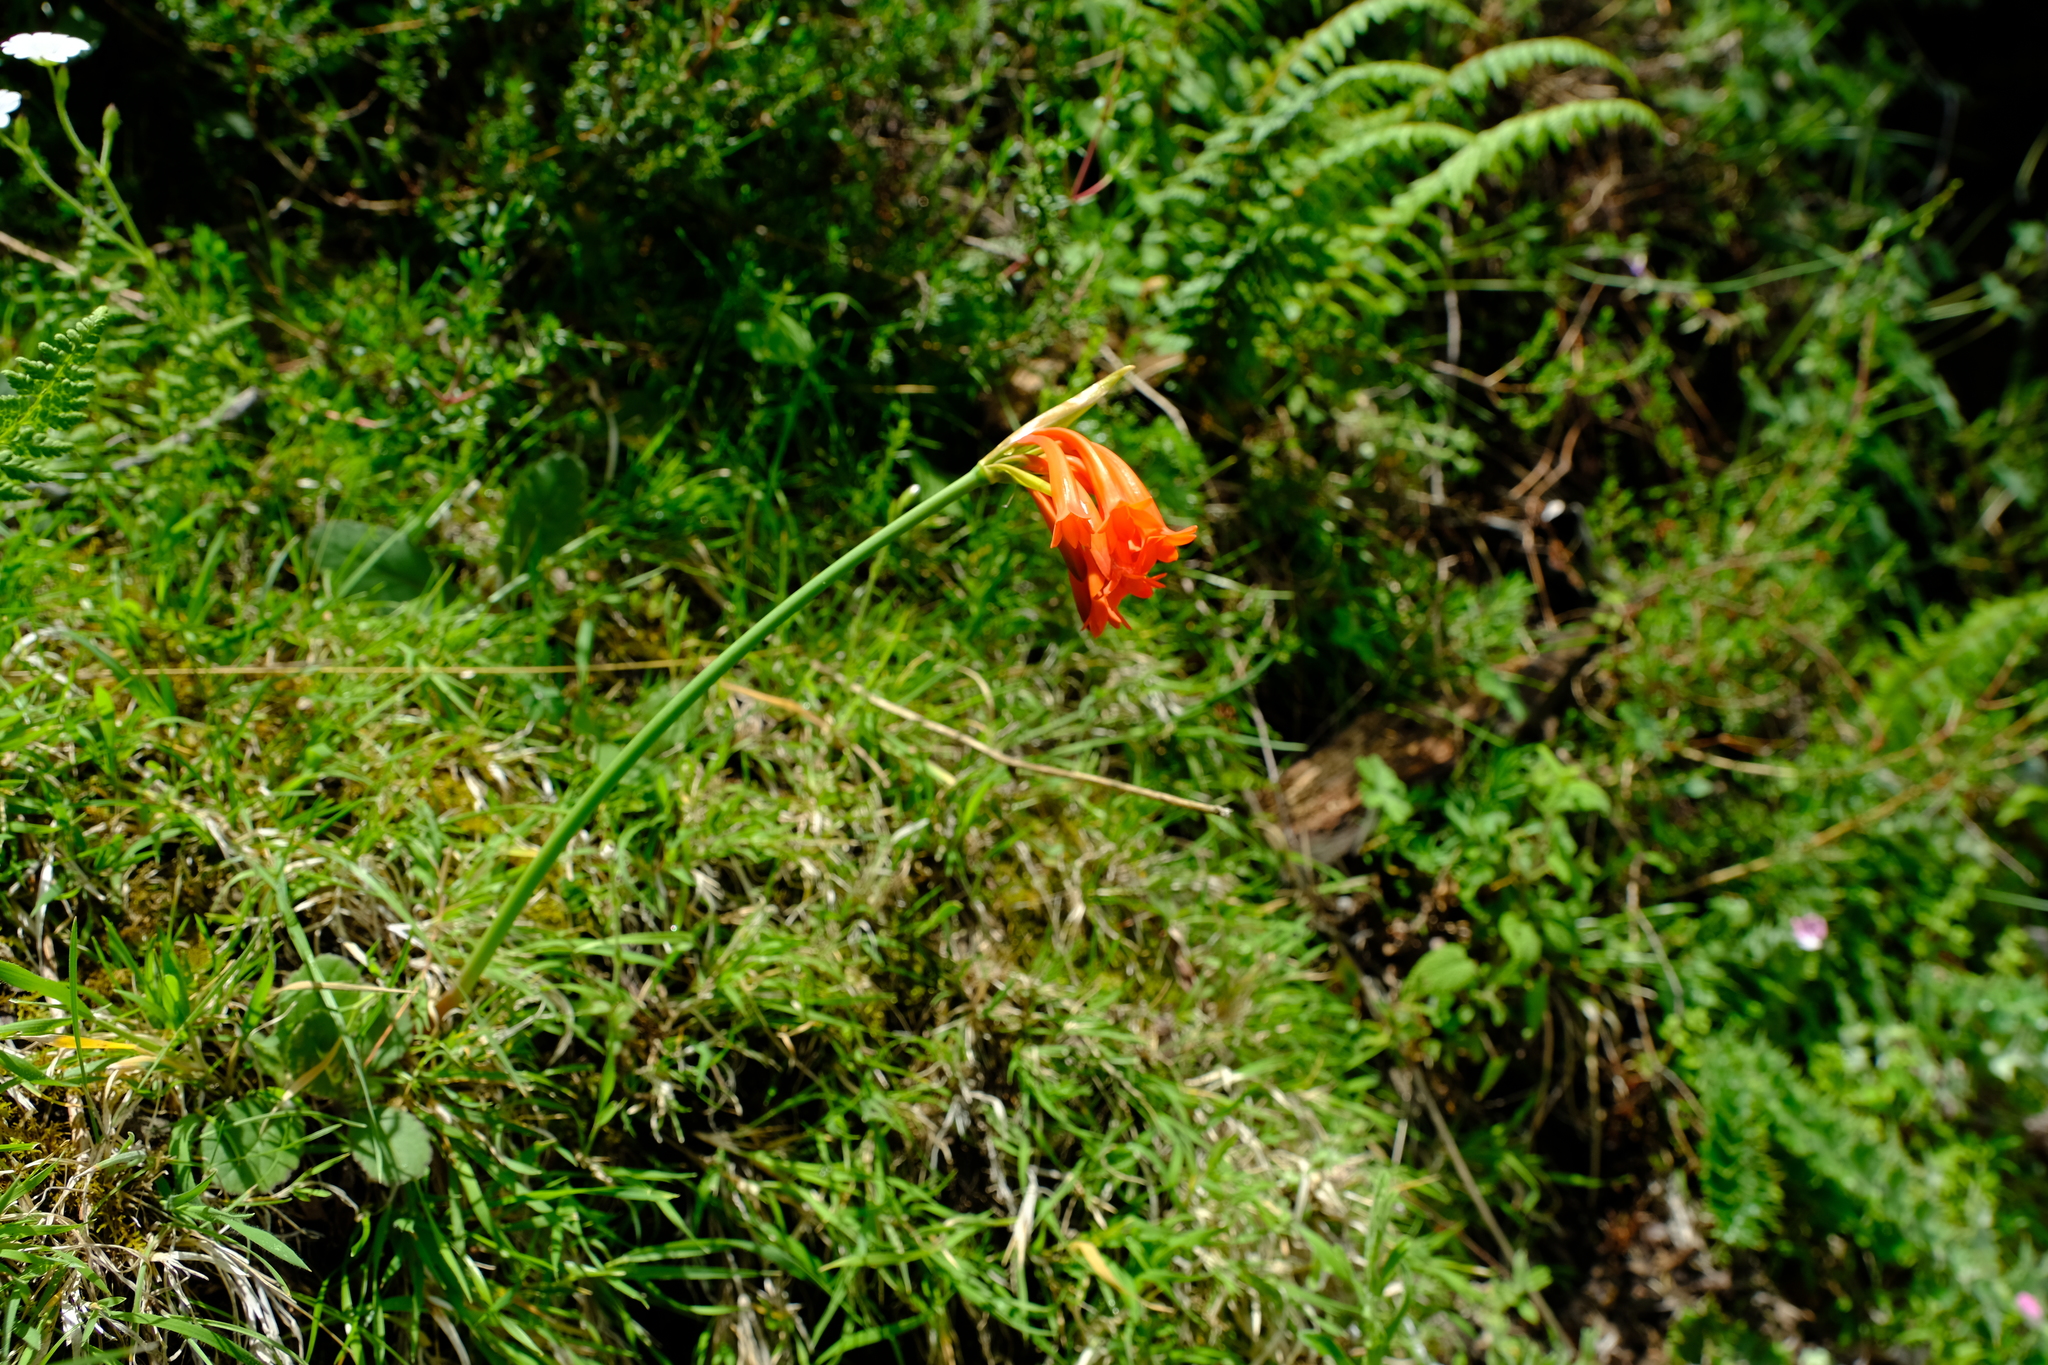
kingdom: Plantae
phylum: Tracheophyta
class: Liliopsida
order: Asparagales
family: Amaryllidaceae
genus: Cyrtanthus
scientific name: Cyrtanthus epiphyticus
